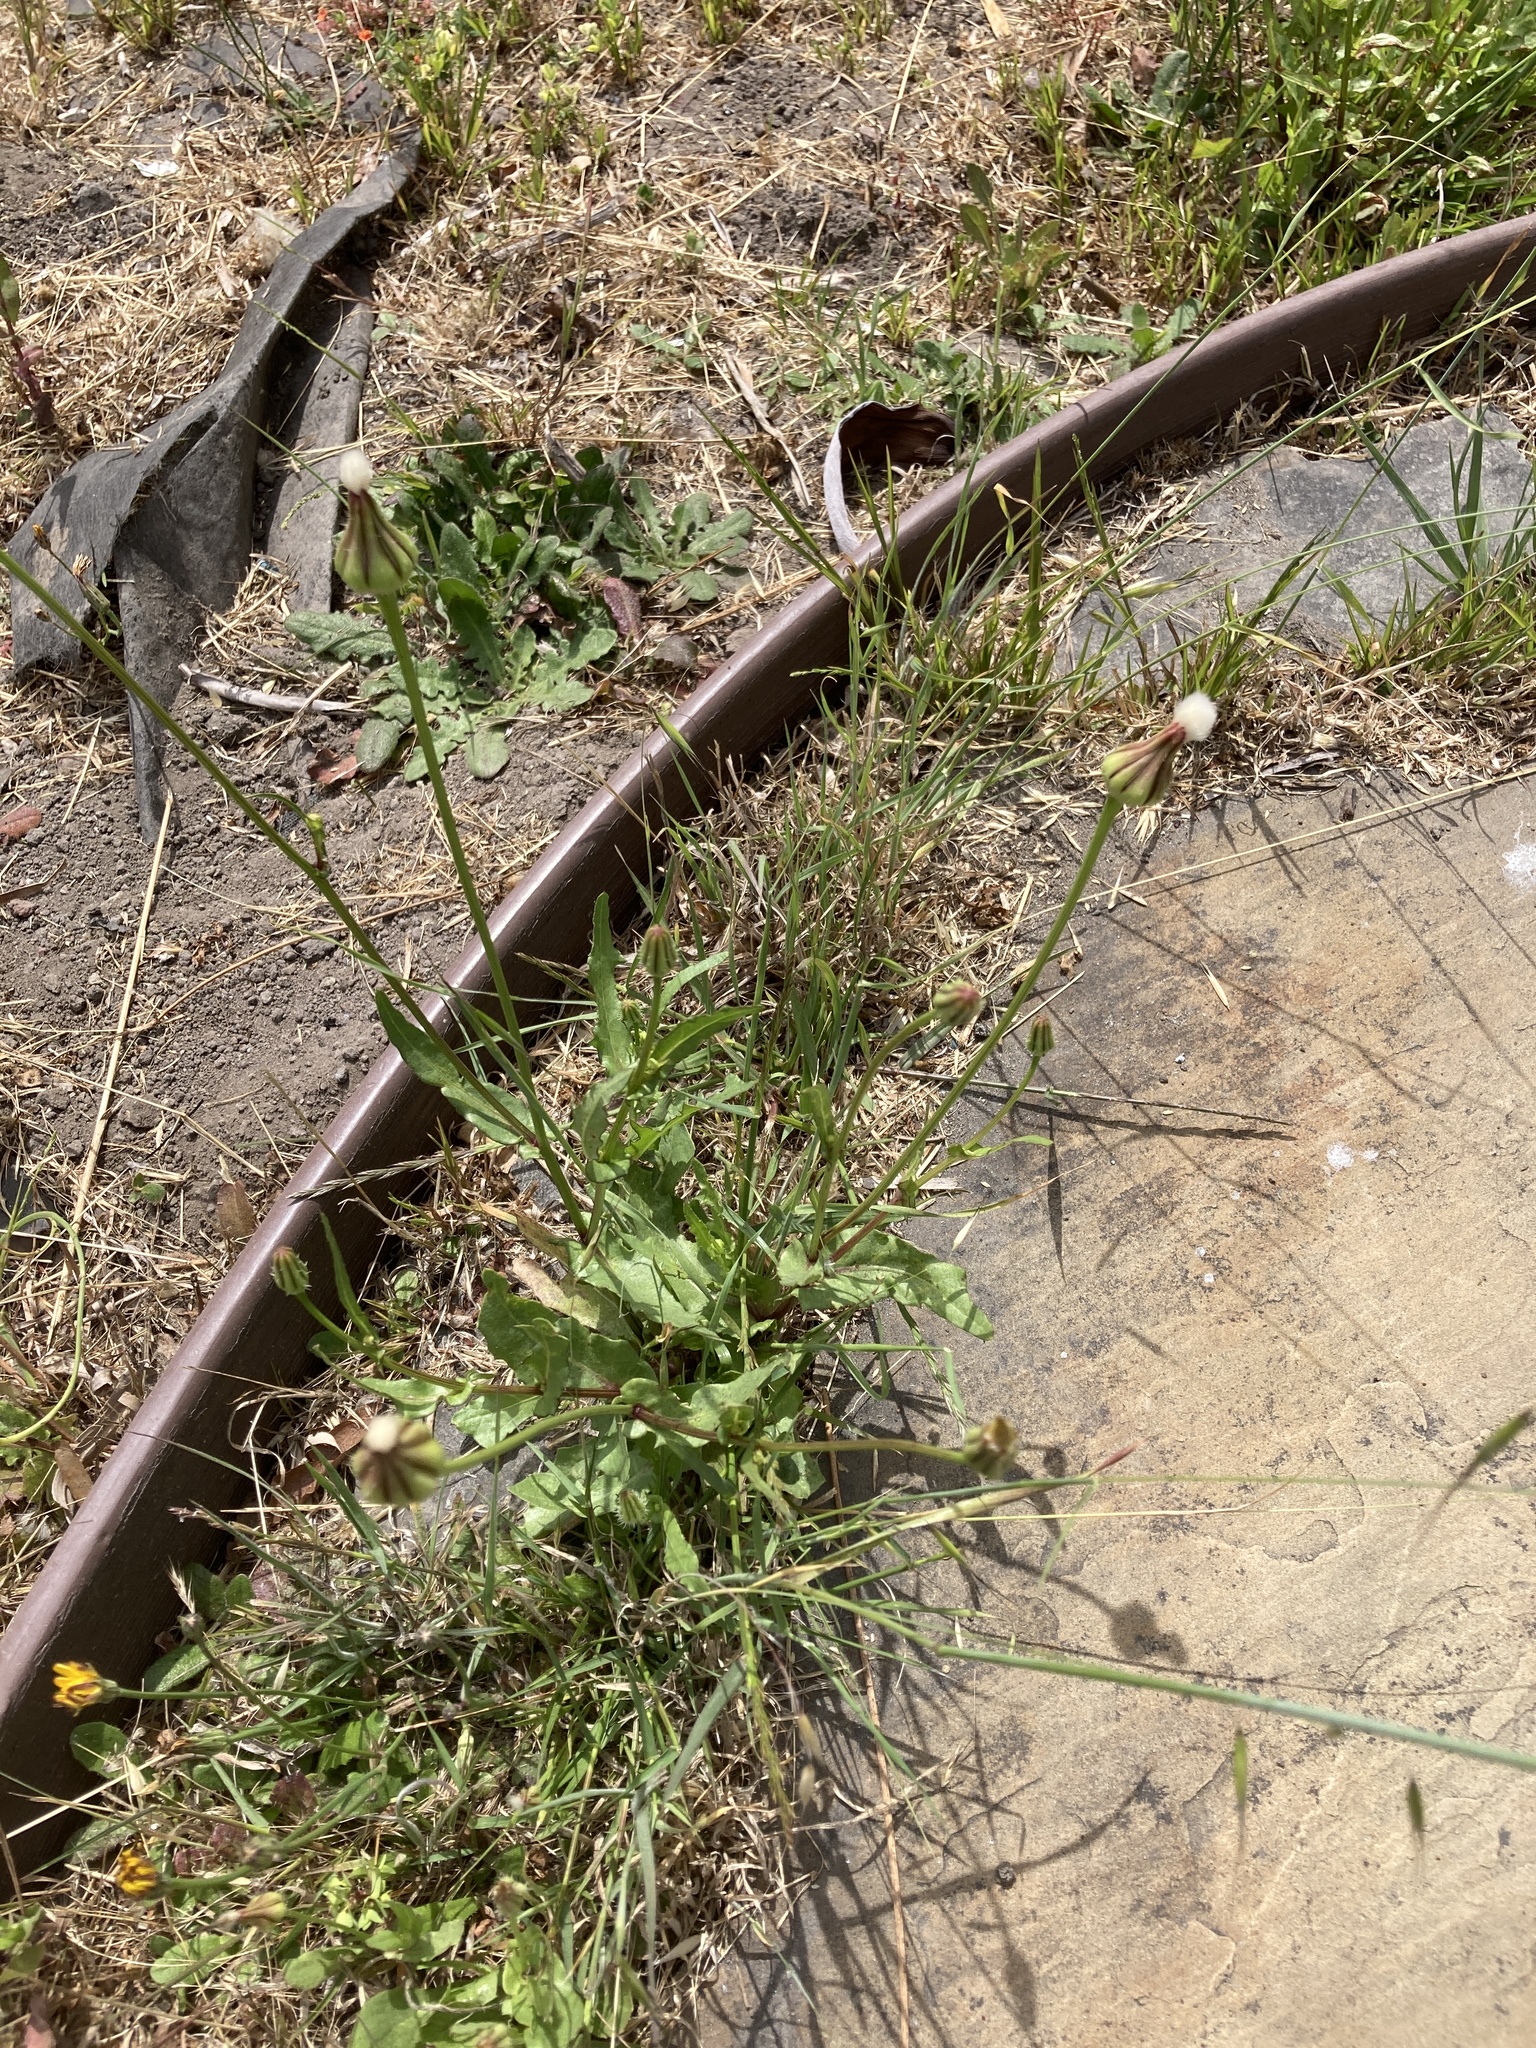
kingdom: Plantae
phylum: Tracheophyta
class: Magnoliopsida
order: Asterales
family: Asteraceae
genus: Urospermum
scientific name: Urospermum picroides
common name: False hawkbit
